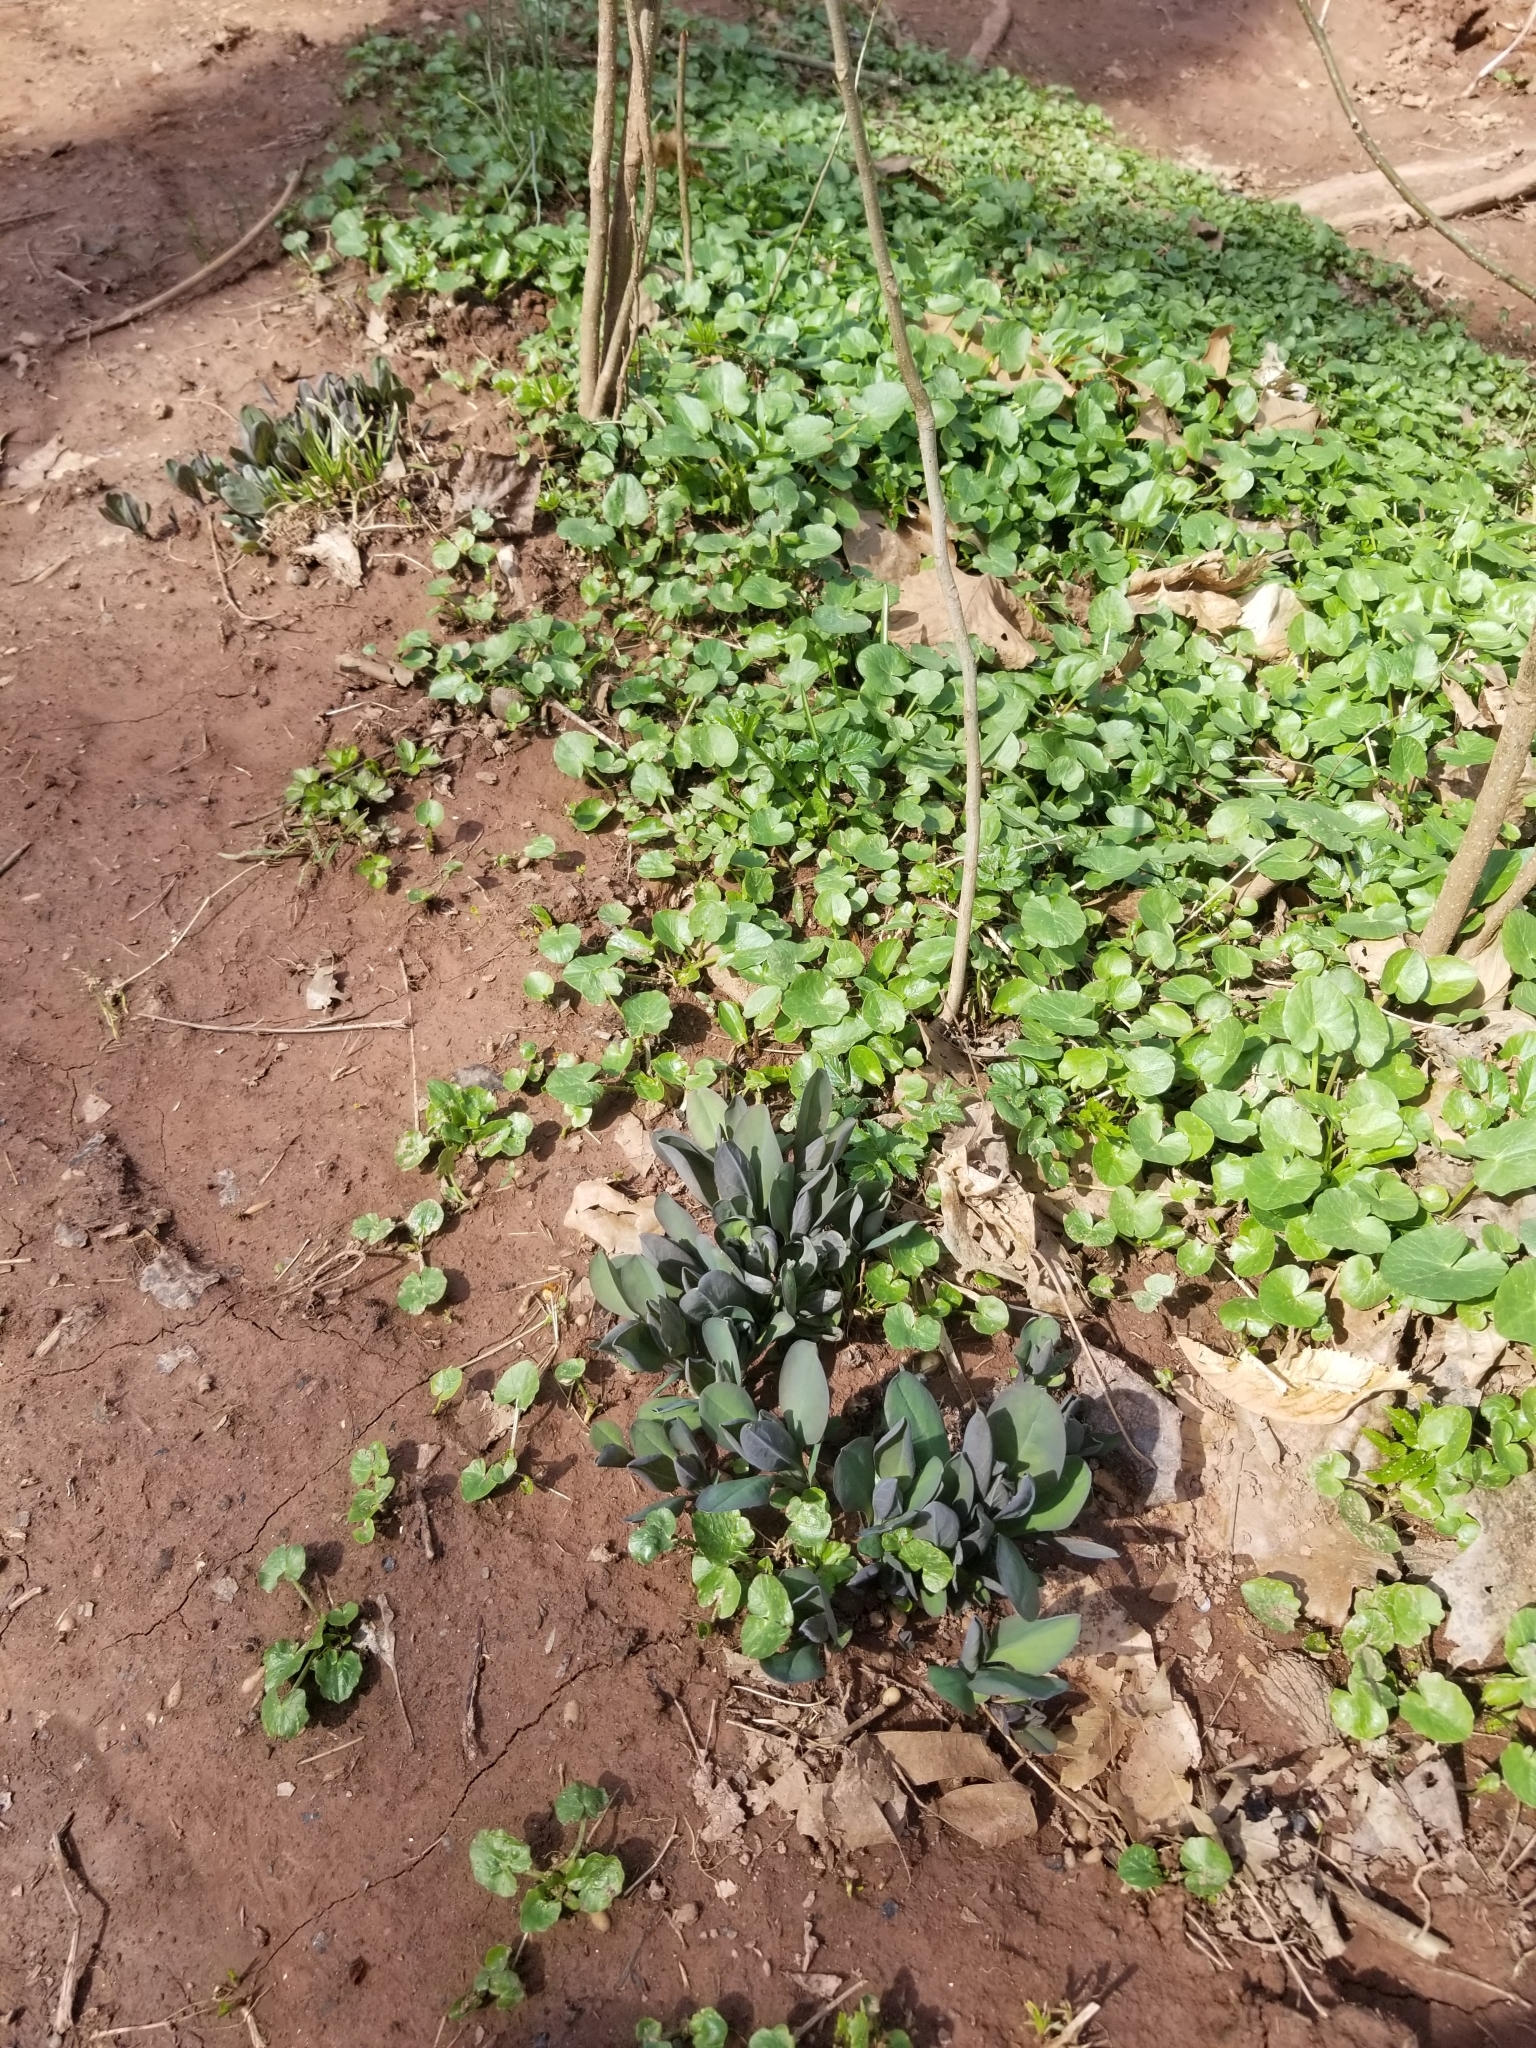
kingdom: Plantae
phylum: Tracheophyta
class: Magnoliopsida
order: Boraginales
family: Boraginaceae
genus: Mertensia
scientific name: Mertensia virginica
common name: Virginia bluebells
